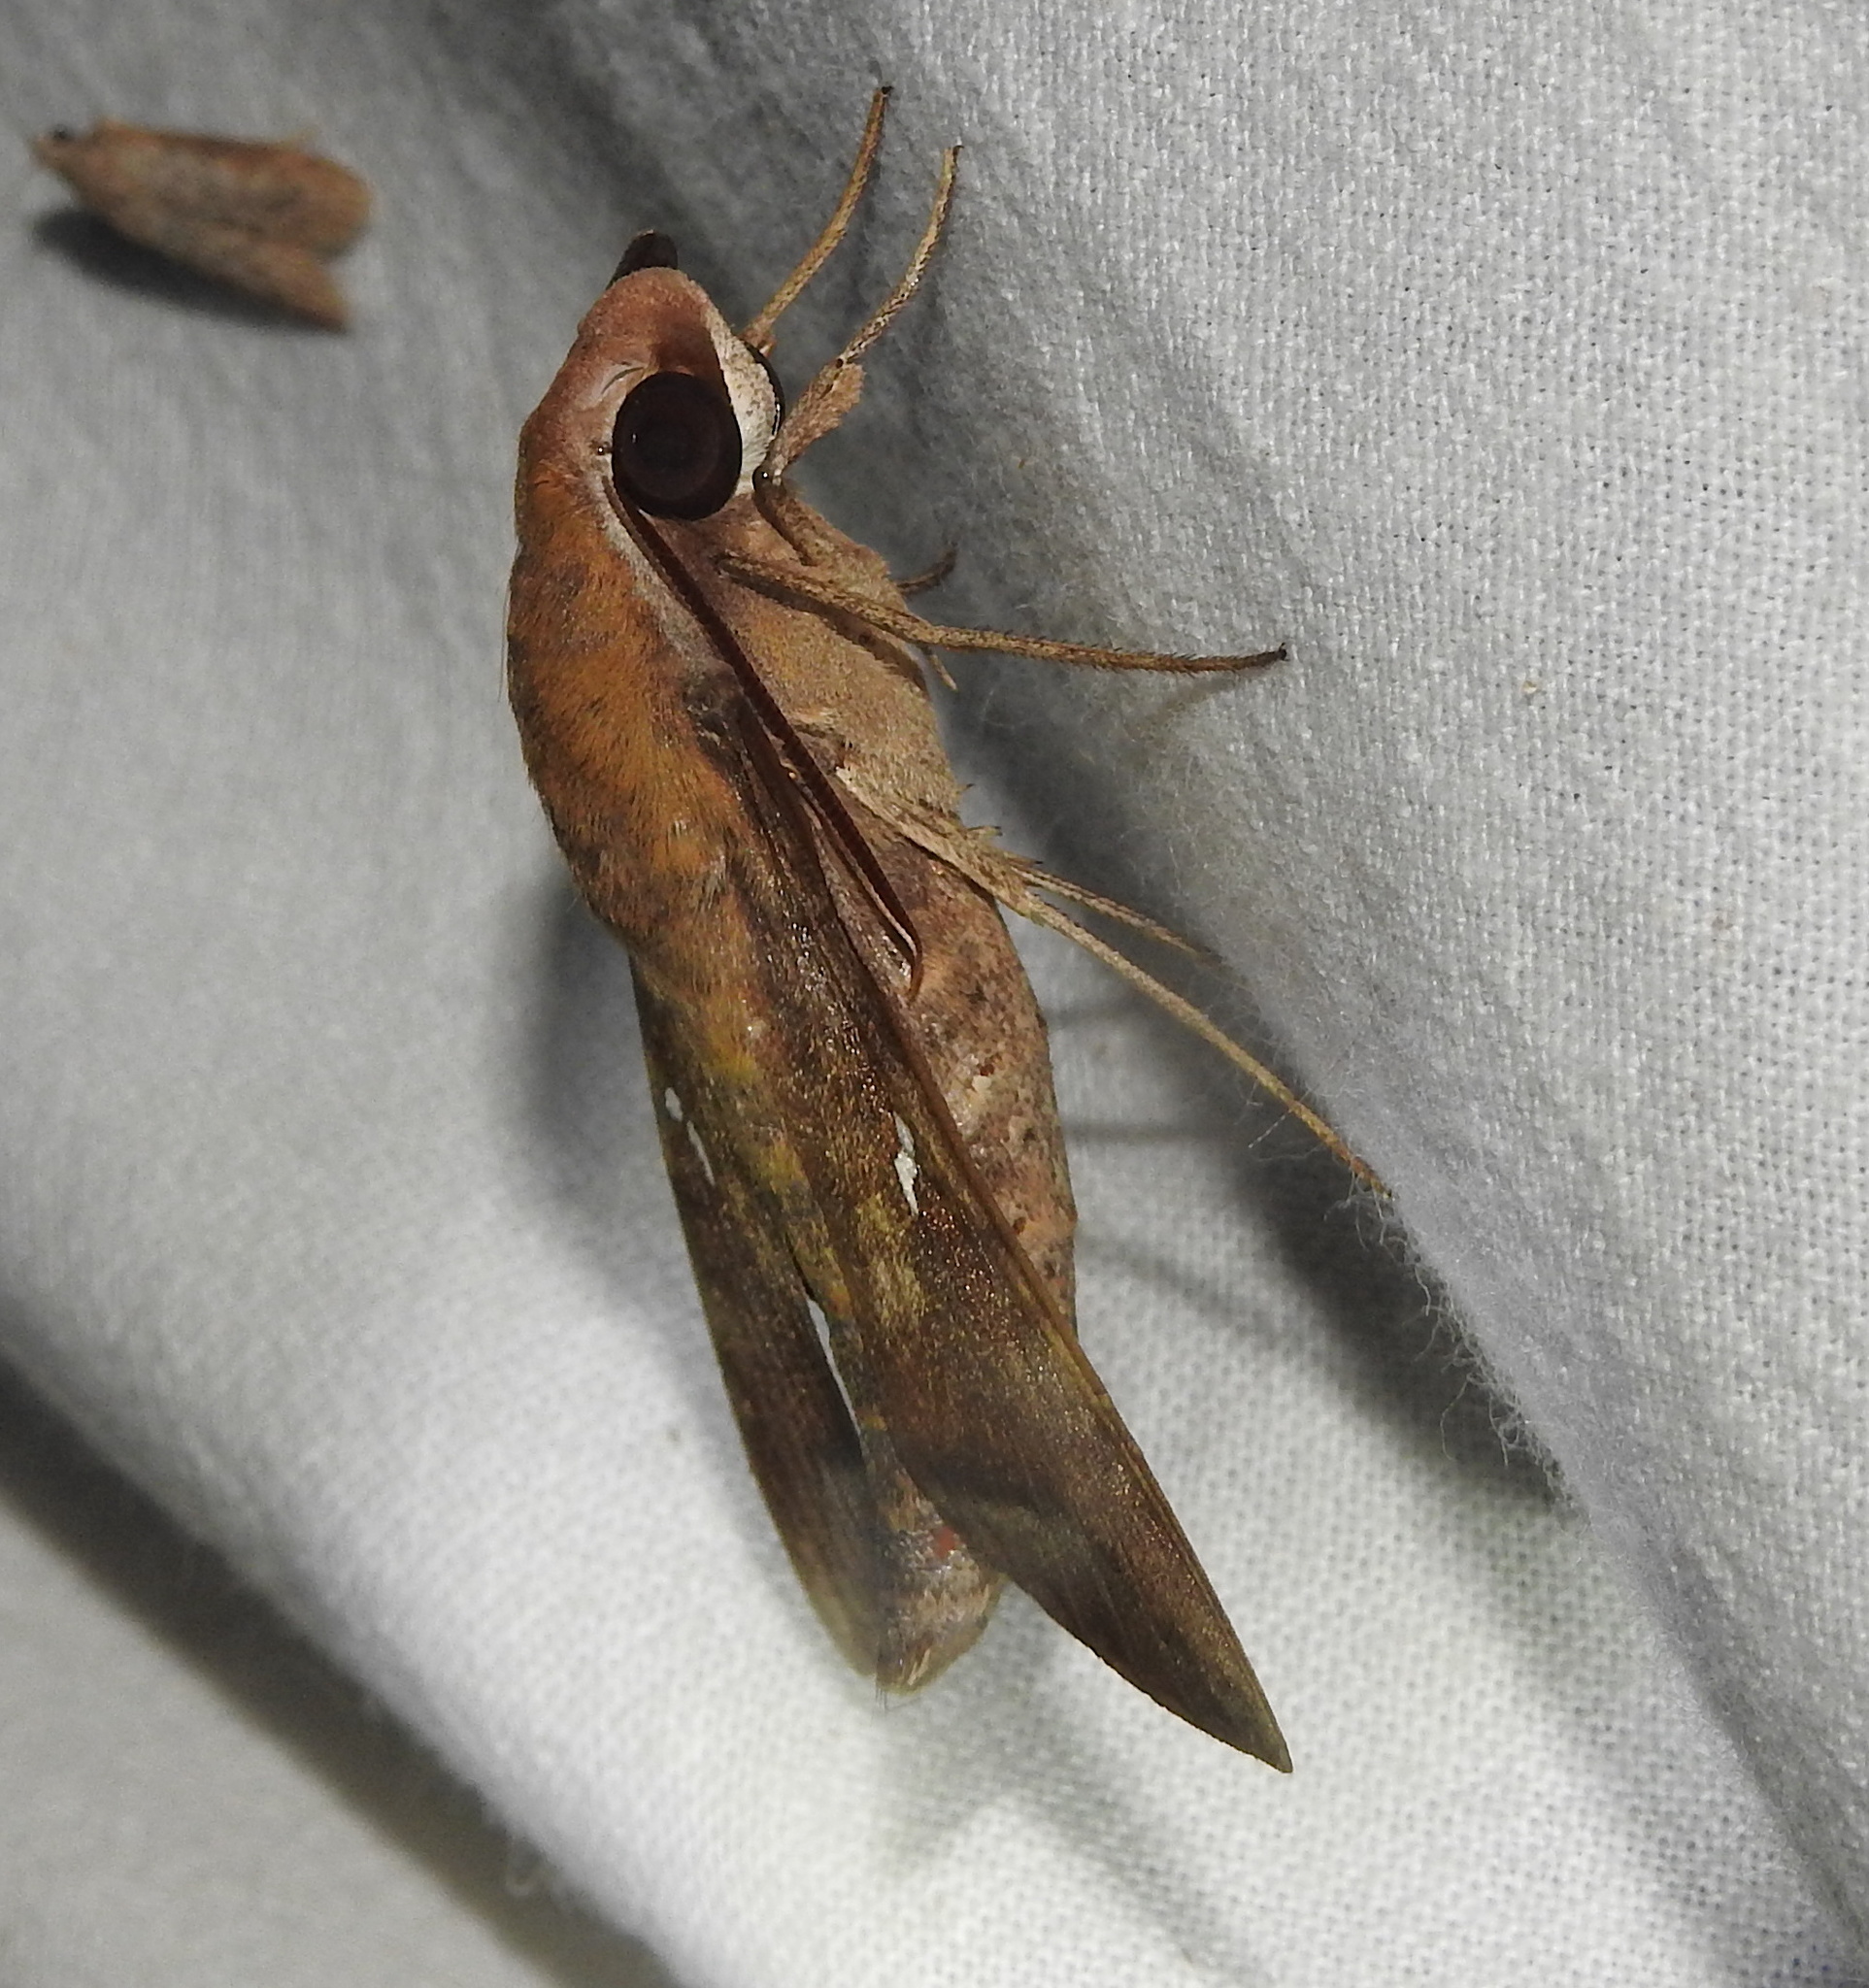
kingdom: Animalia
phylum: Arthropoda
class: Insecta
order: Lepidoptera
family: Sphingidae
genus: Nephele
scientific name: Nephele hespera
